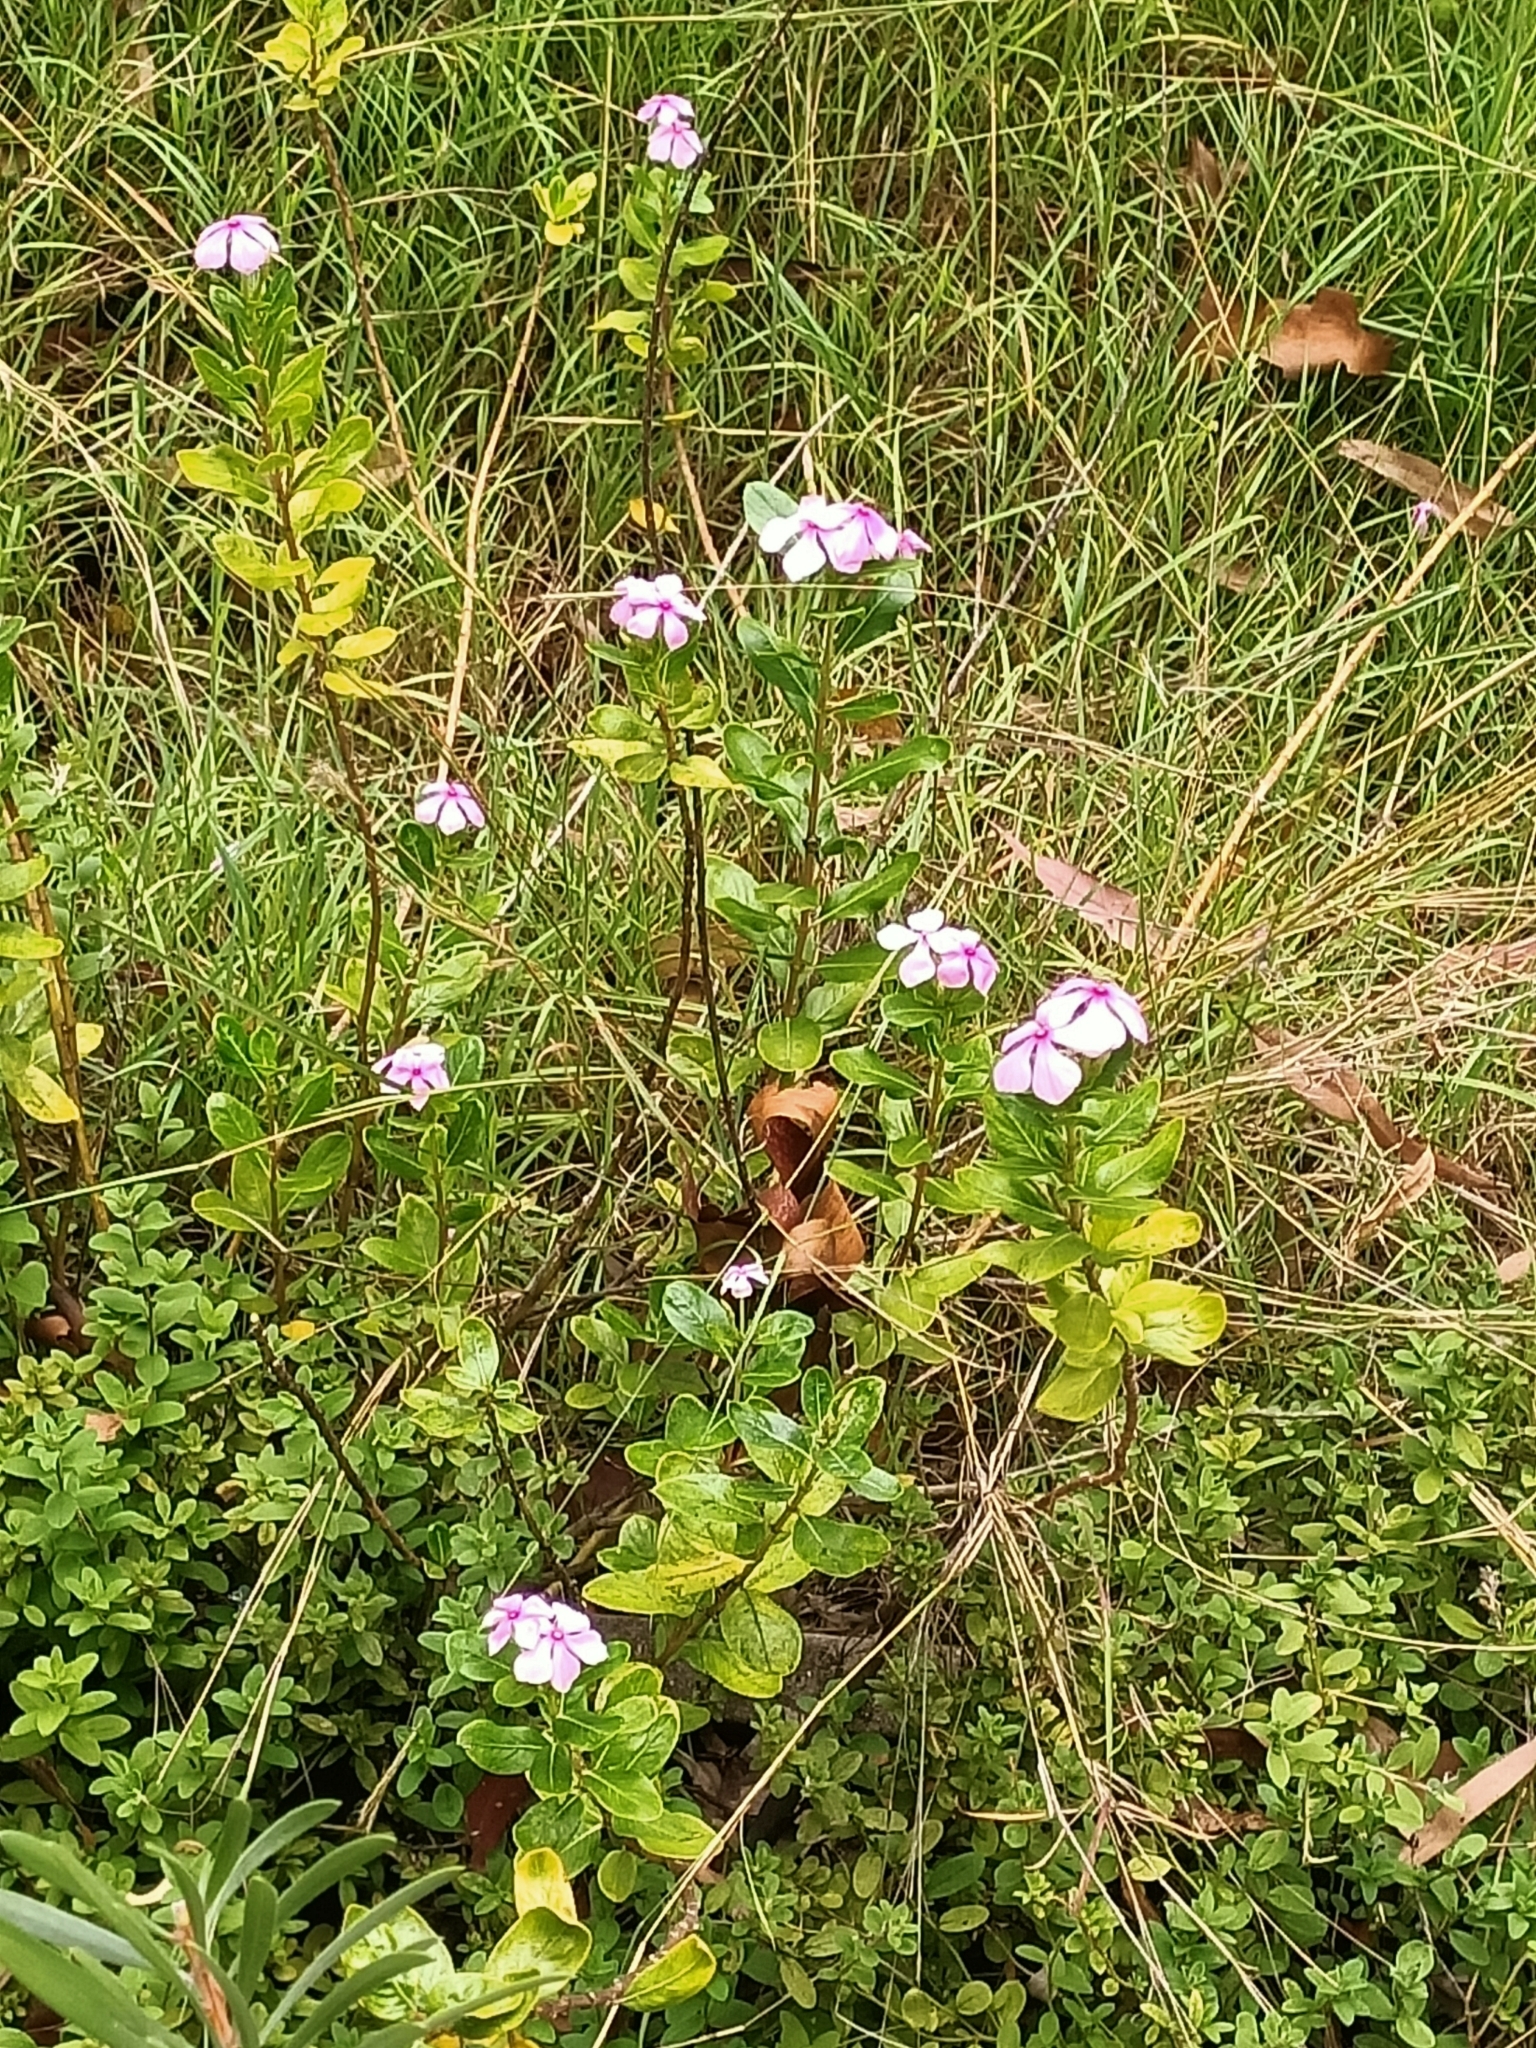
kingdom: Plantae
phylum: Tracheophyta
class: Magnoliopsida
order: Gentianales
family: Apocynaceae
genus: Catharanthus
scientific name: Catharanthus roseus
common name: Madagascar periwinkle
